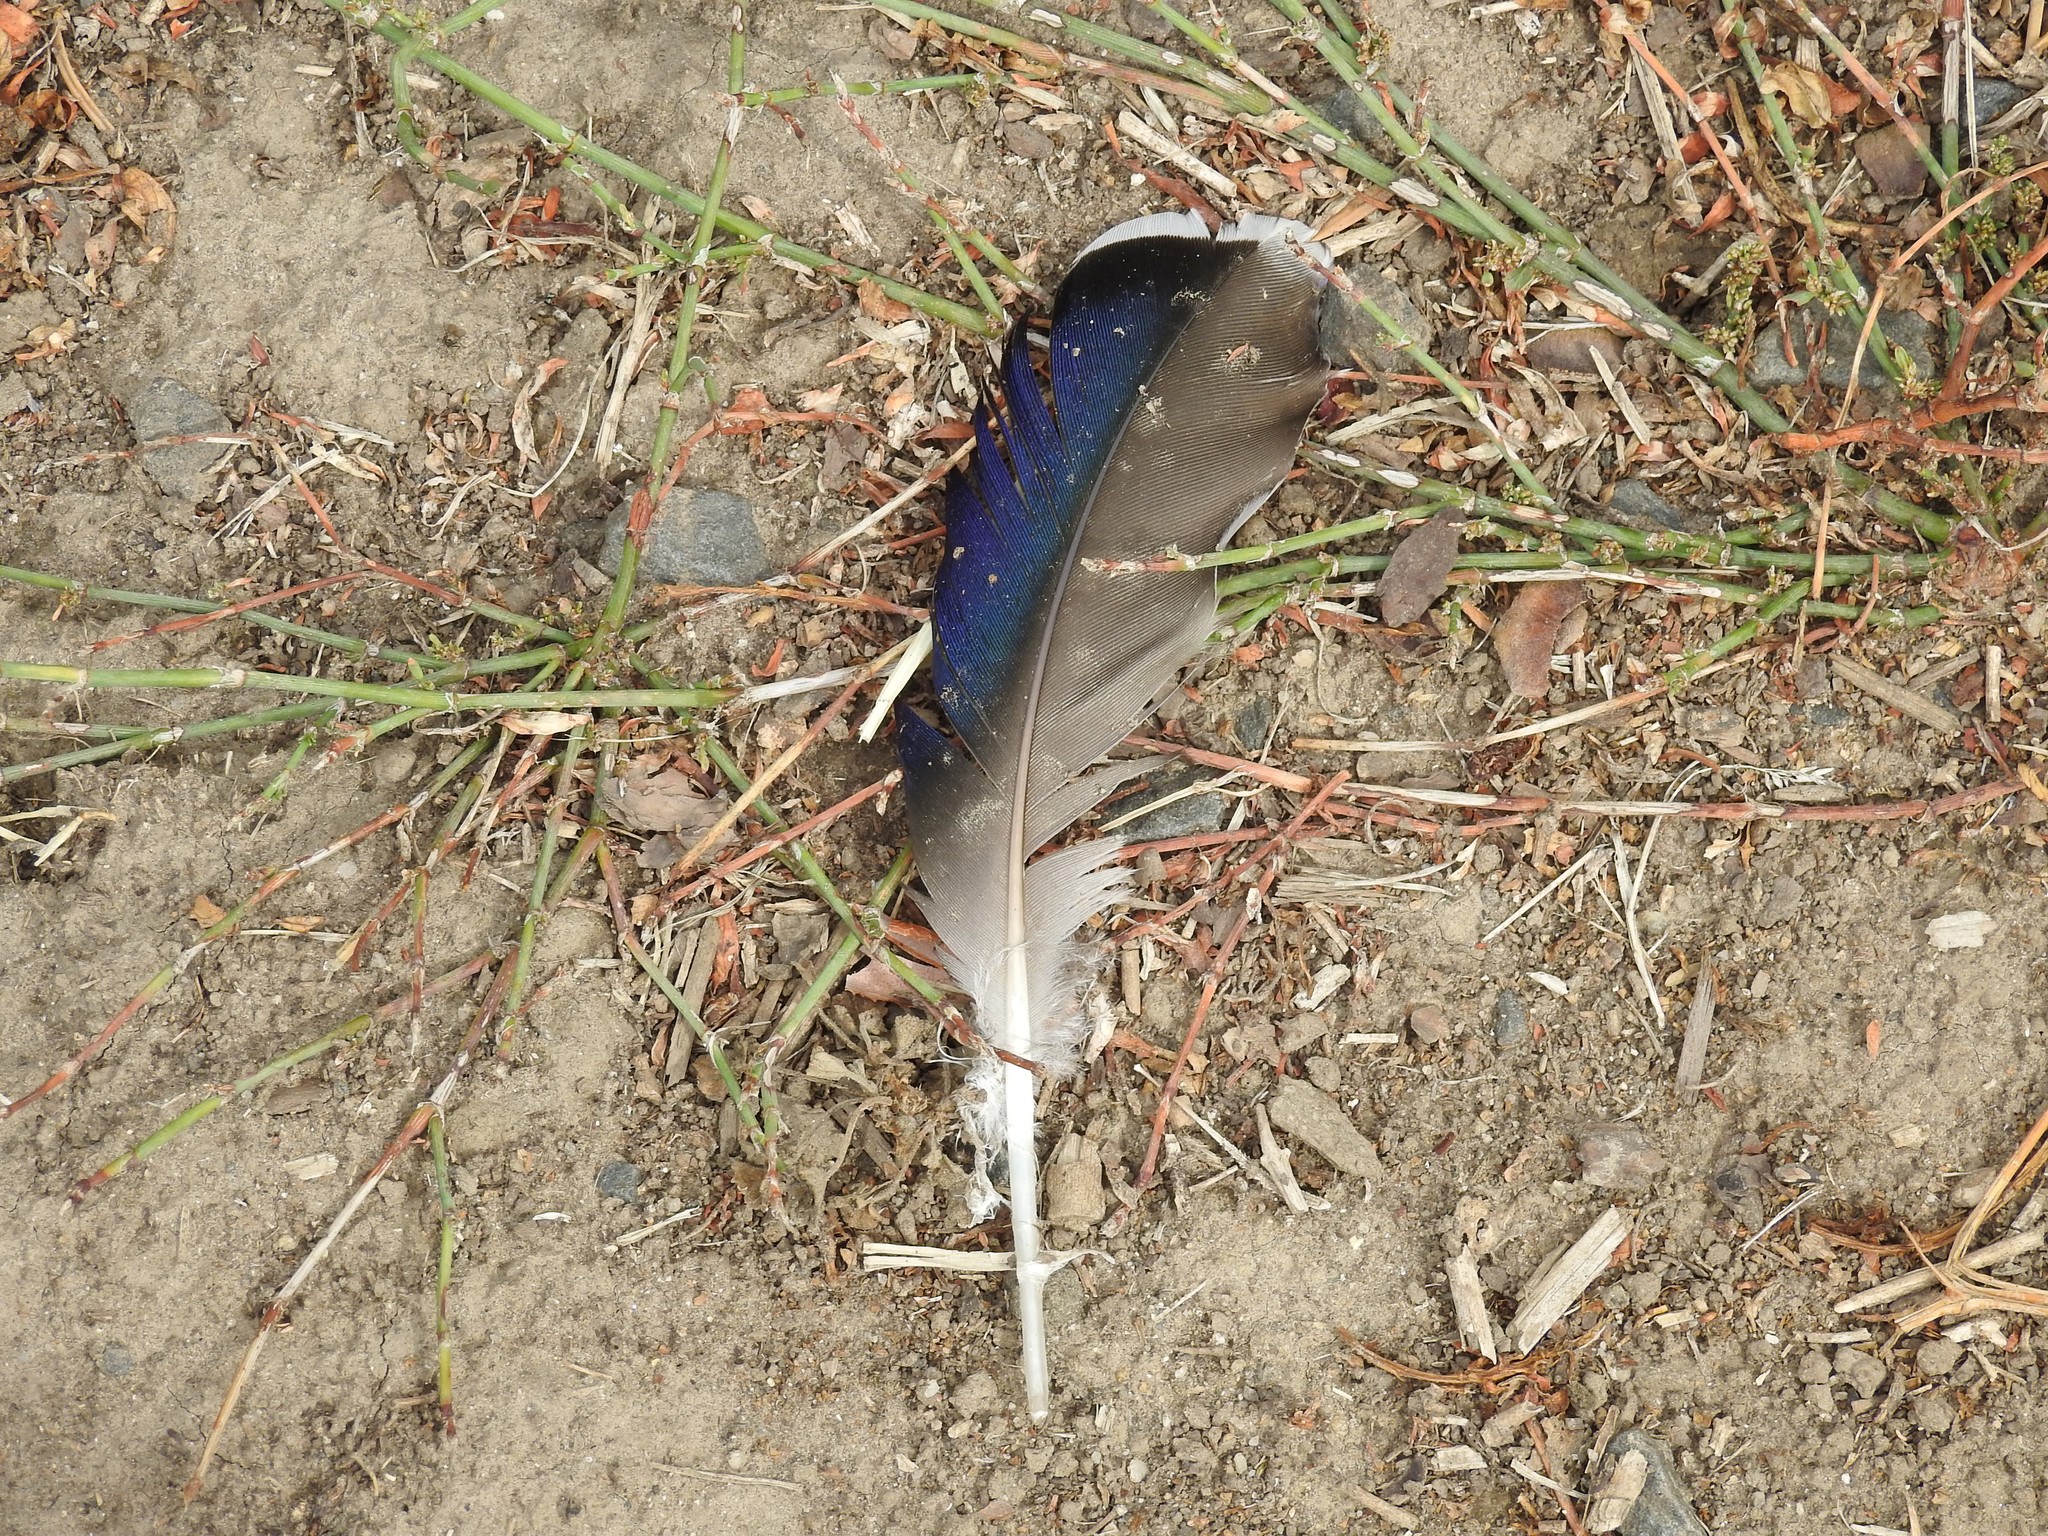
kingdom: Animalia
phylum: Chordata
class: Aves
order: Anseriformes
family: Anatidae
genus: Anas
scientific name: Anas platyrhynchos
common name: Mallard
